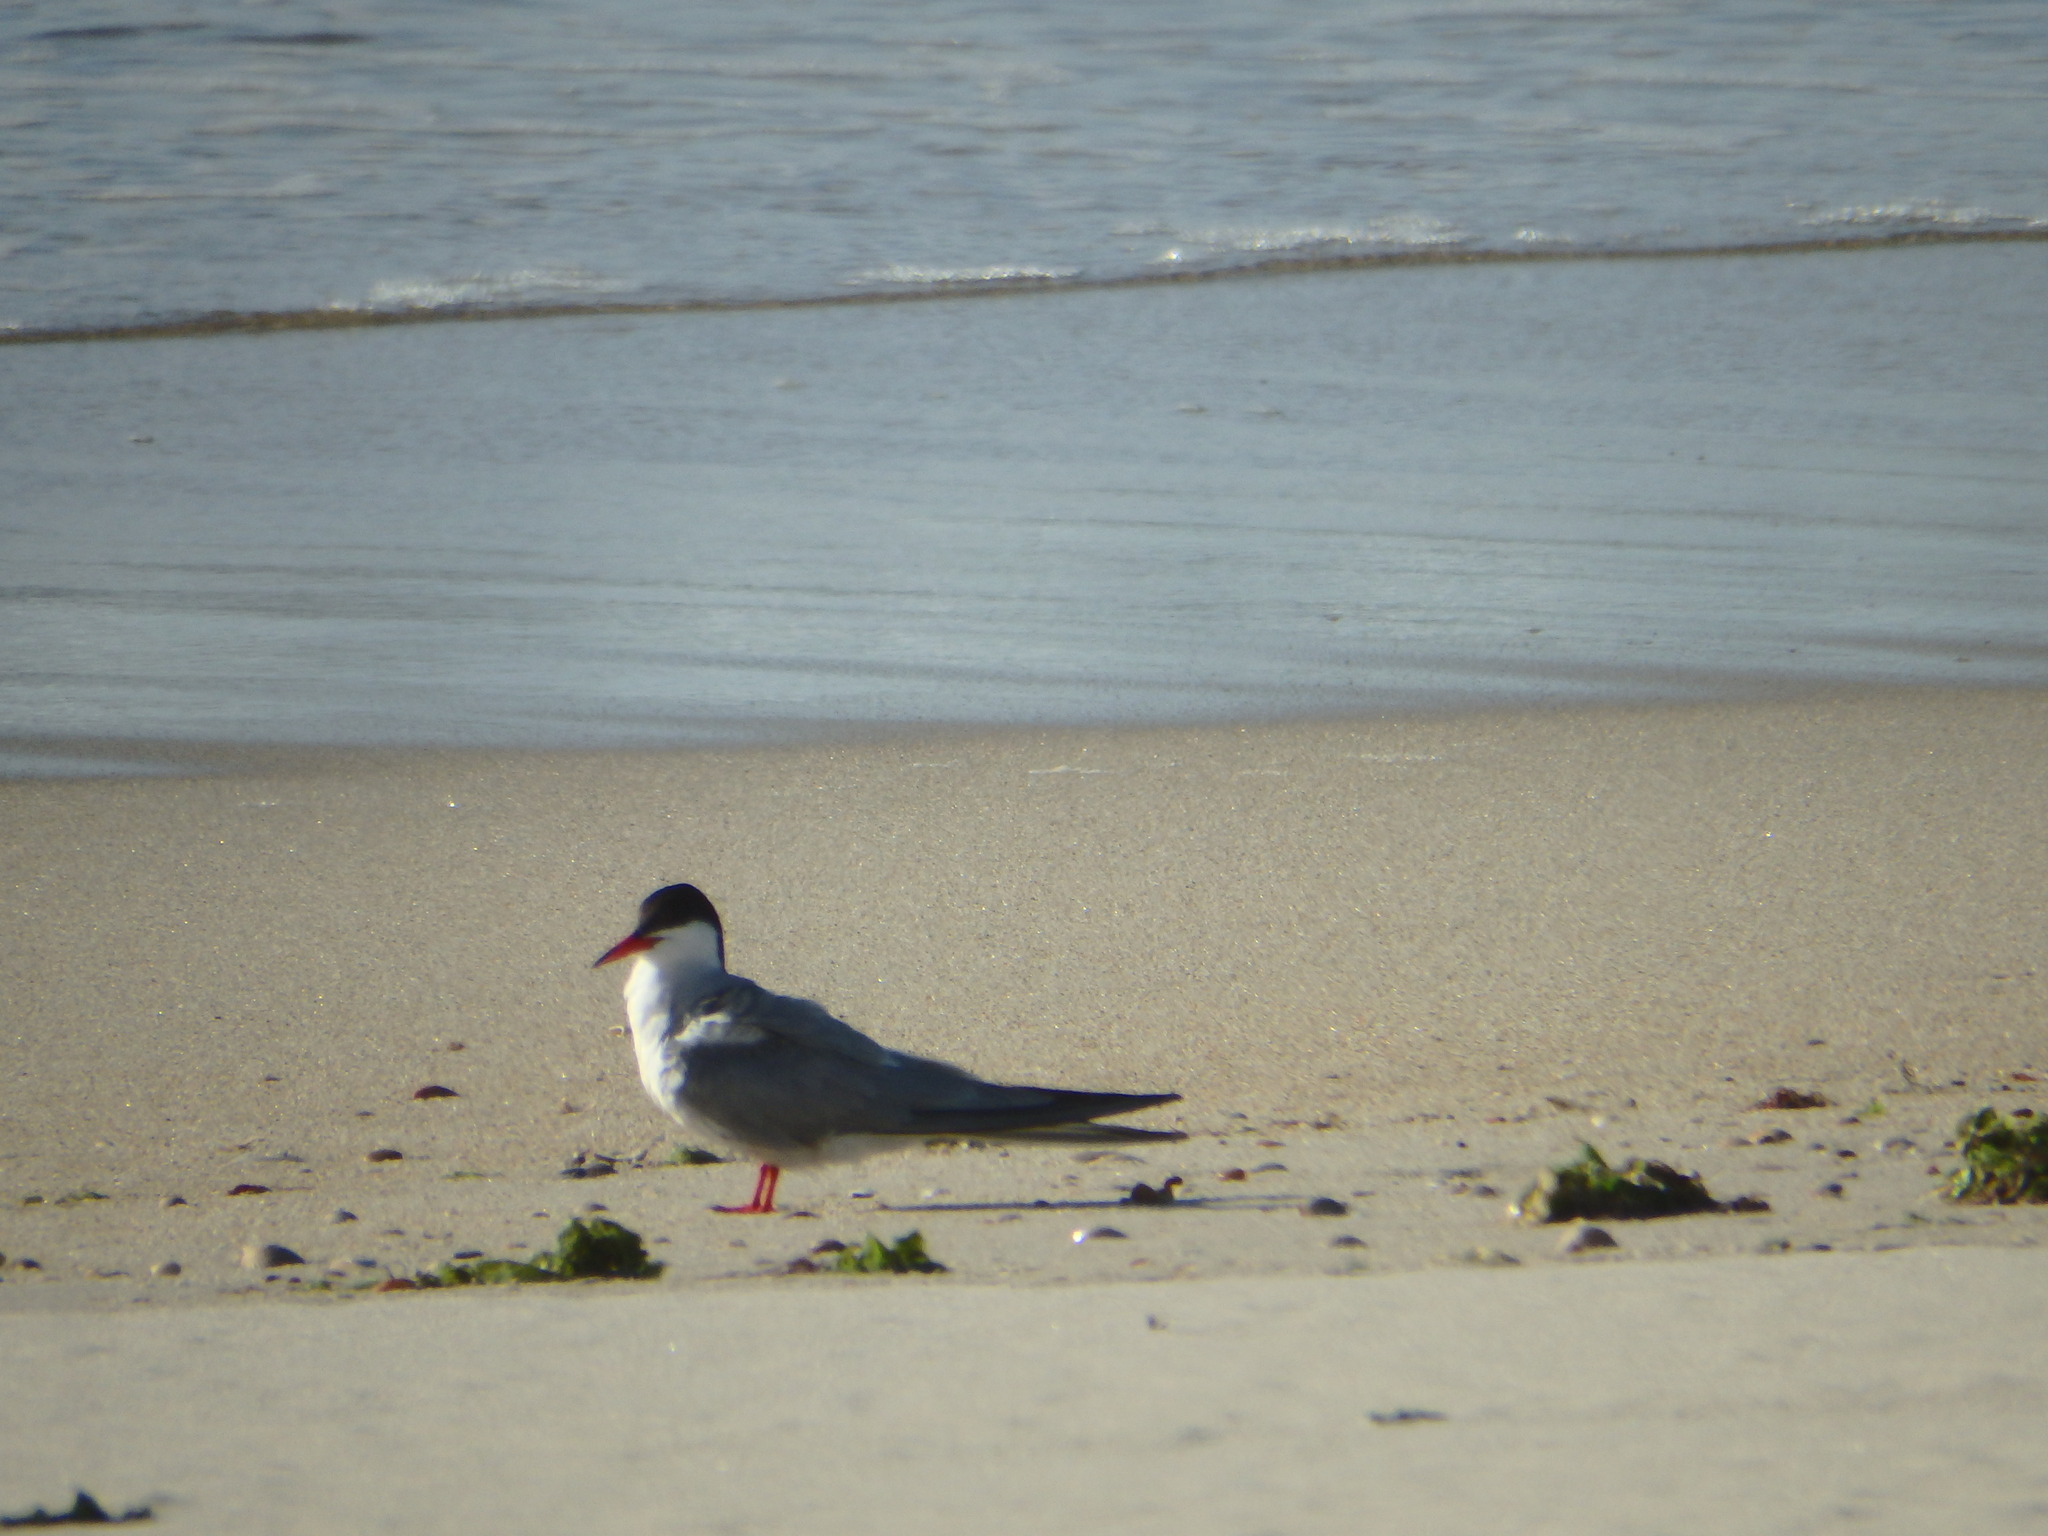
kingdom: Animalia
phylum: Chordata
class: Aves
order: Charadriiformes
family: Laridae
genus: Sterna
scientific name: Sterna hirundo
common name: Common tern
